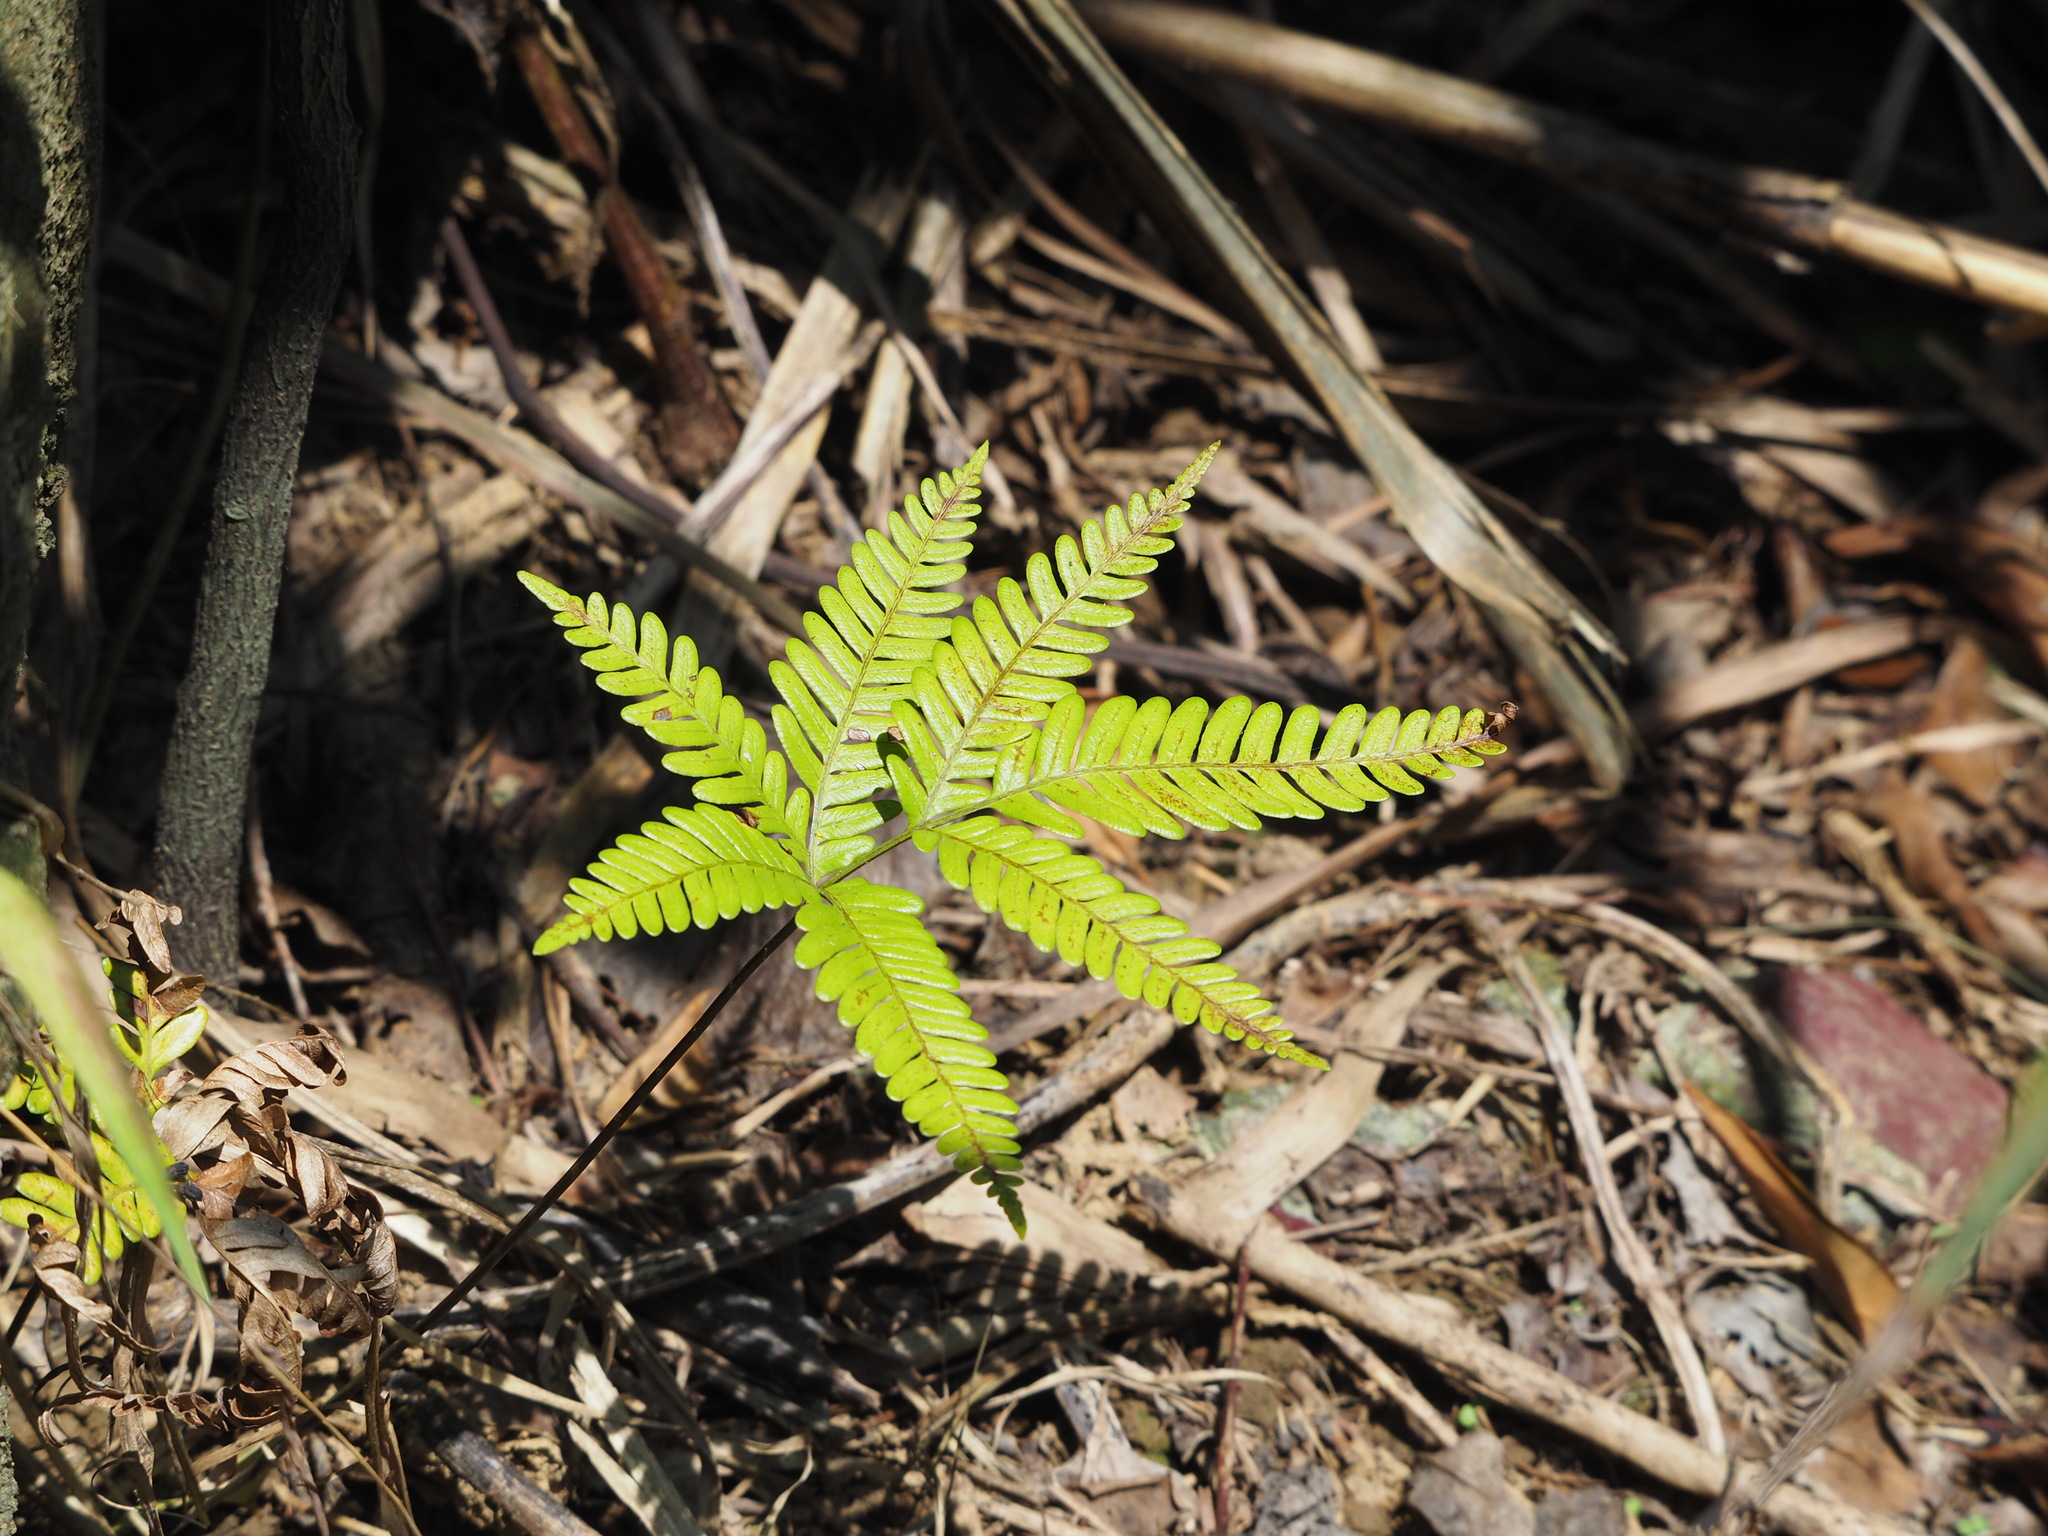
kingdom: Plantae
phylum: Tracheophyta
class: Polypodiopsida
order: Polypodiales
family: Pteridaceae
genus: Pteris
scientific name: Pteris fauriei
